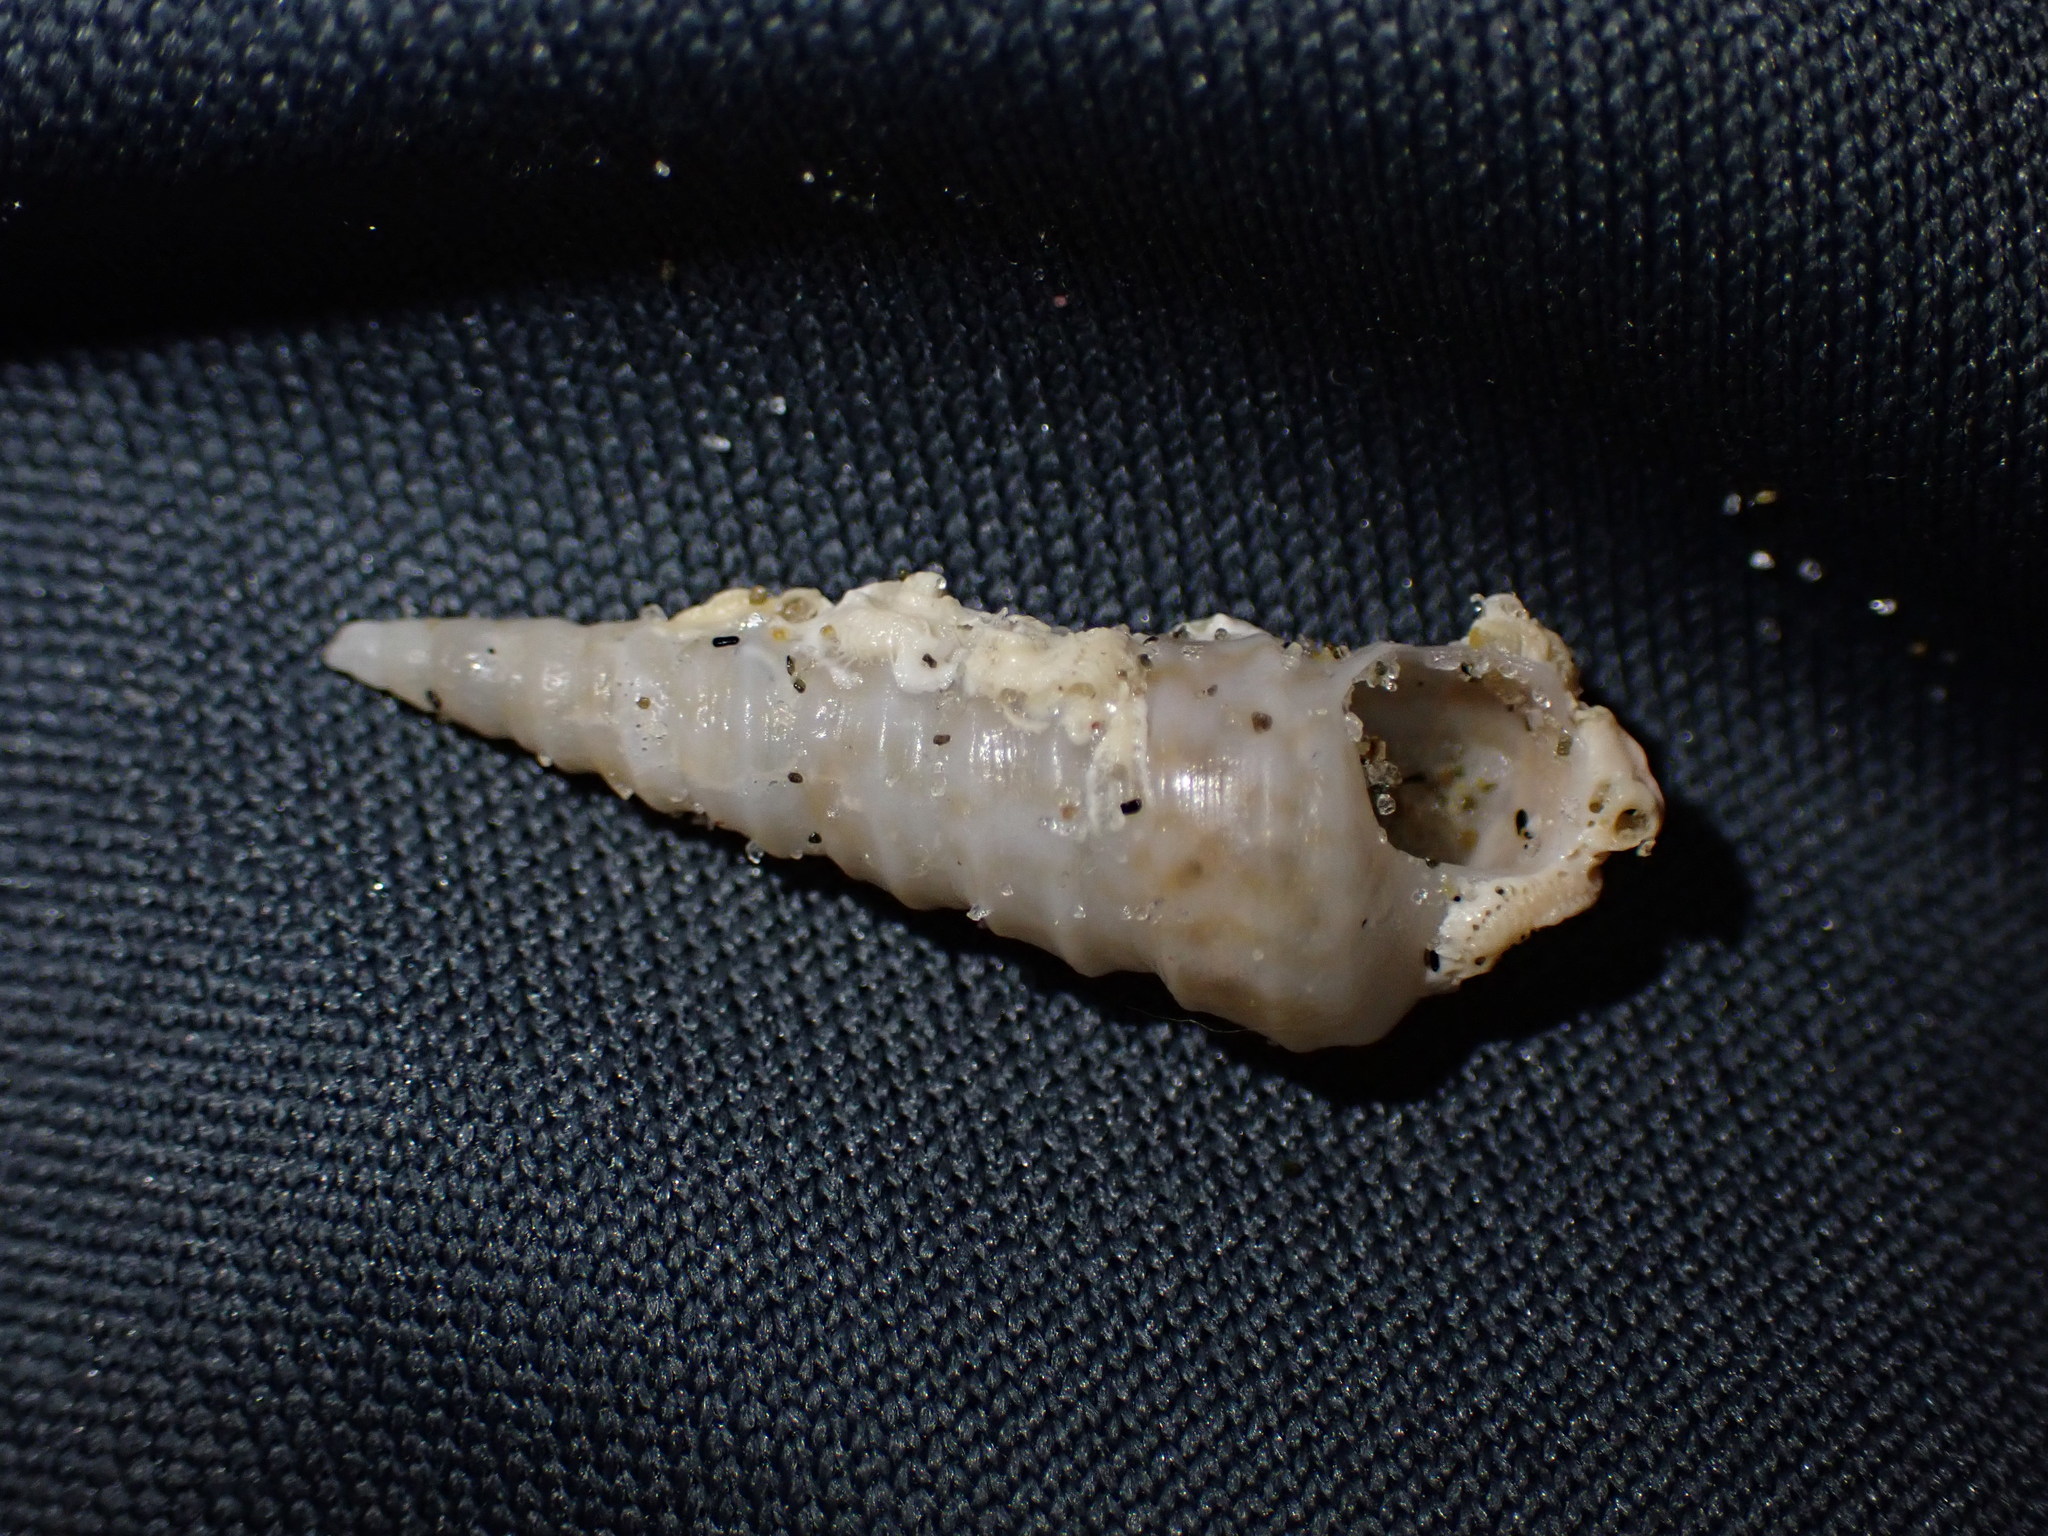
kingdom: Animalia
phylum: Mollusca
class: Gastropoda
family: Turritellidae
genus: Stiracolpus
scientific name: Stiracolpus pagoda
